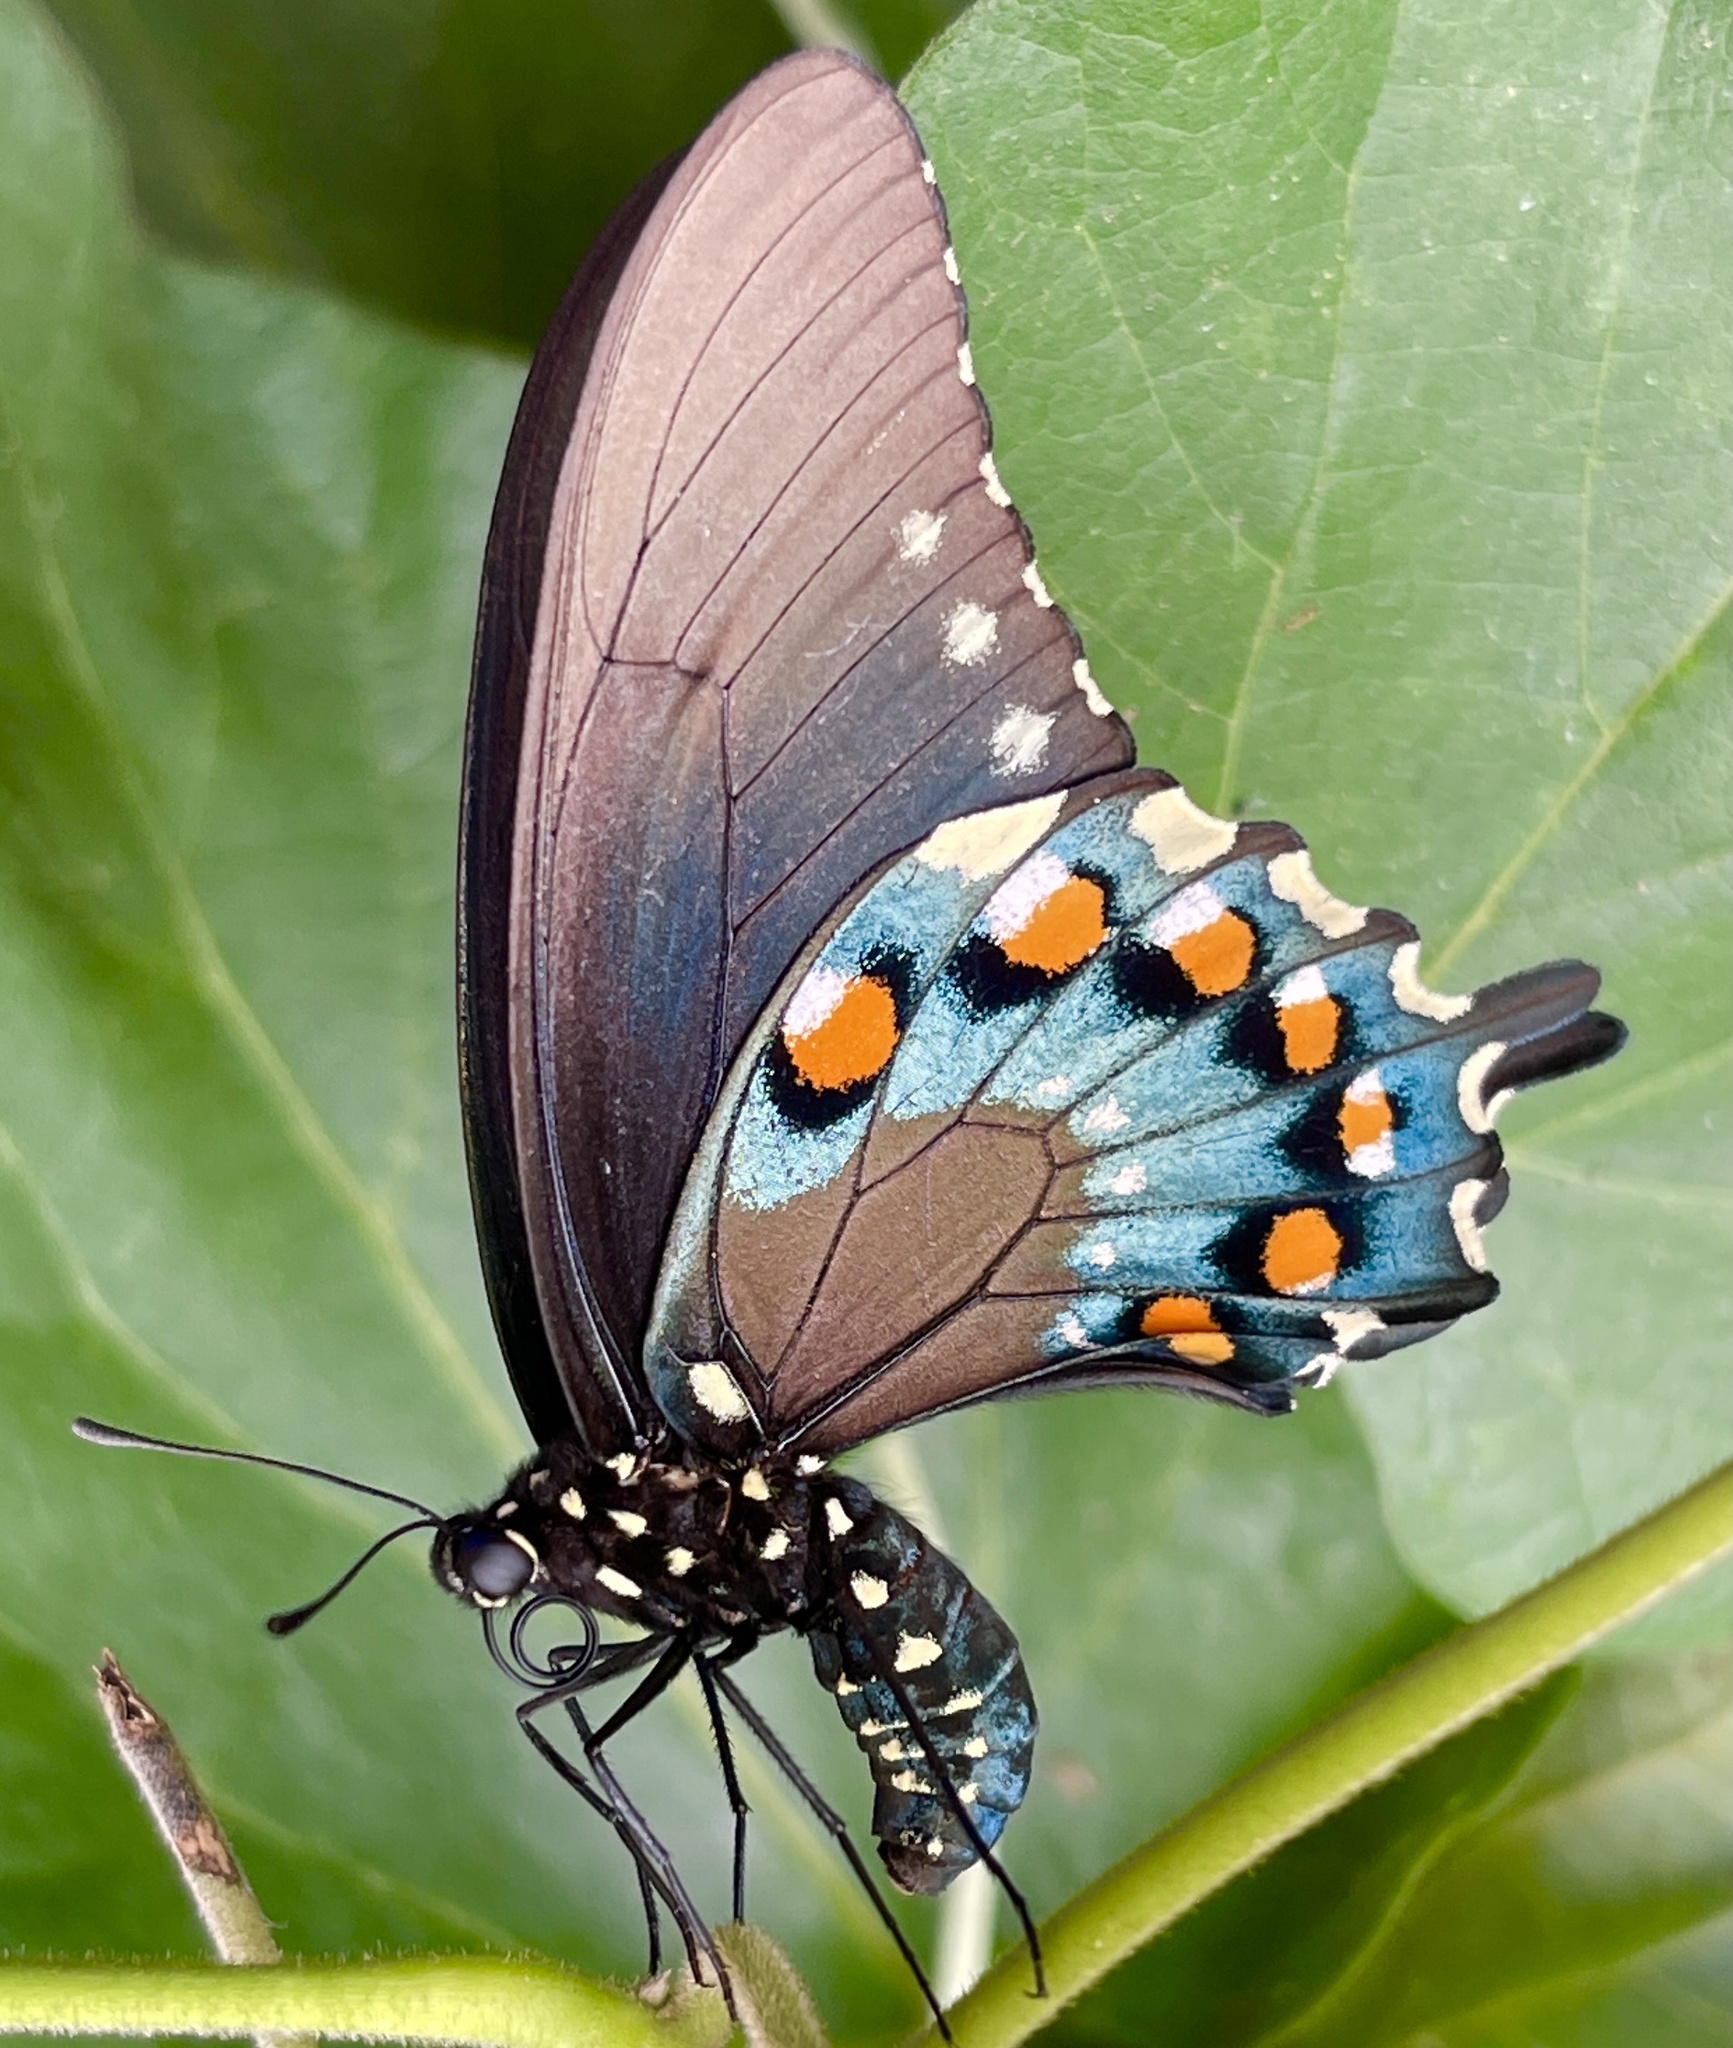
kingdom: Animalia
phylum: Arthropoda
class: Insecta
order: Lepidoptera
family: Papilionidae
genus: Battus
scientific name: Battus philenor
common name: Pipevine swallowtail
